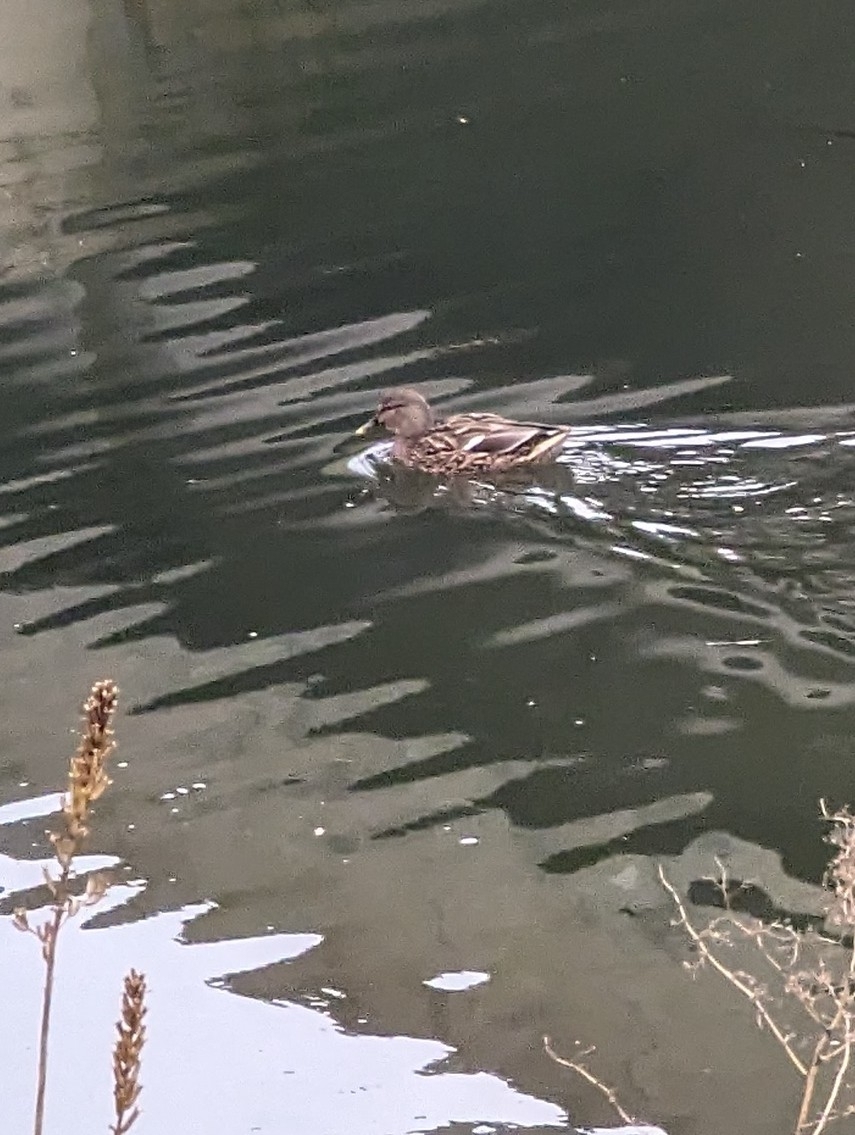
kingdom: Animalia
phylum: Chordata
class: Aves
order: Anseriformes
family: Anatidae
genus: Anas
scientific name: Anas platyrhynchos
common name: Mallard
